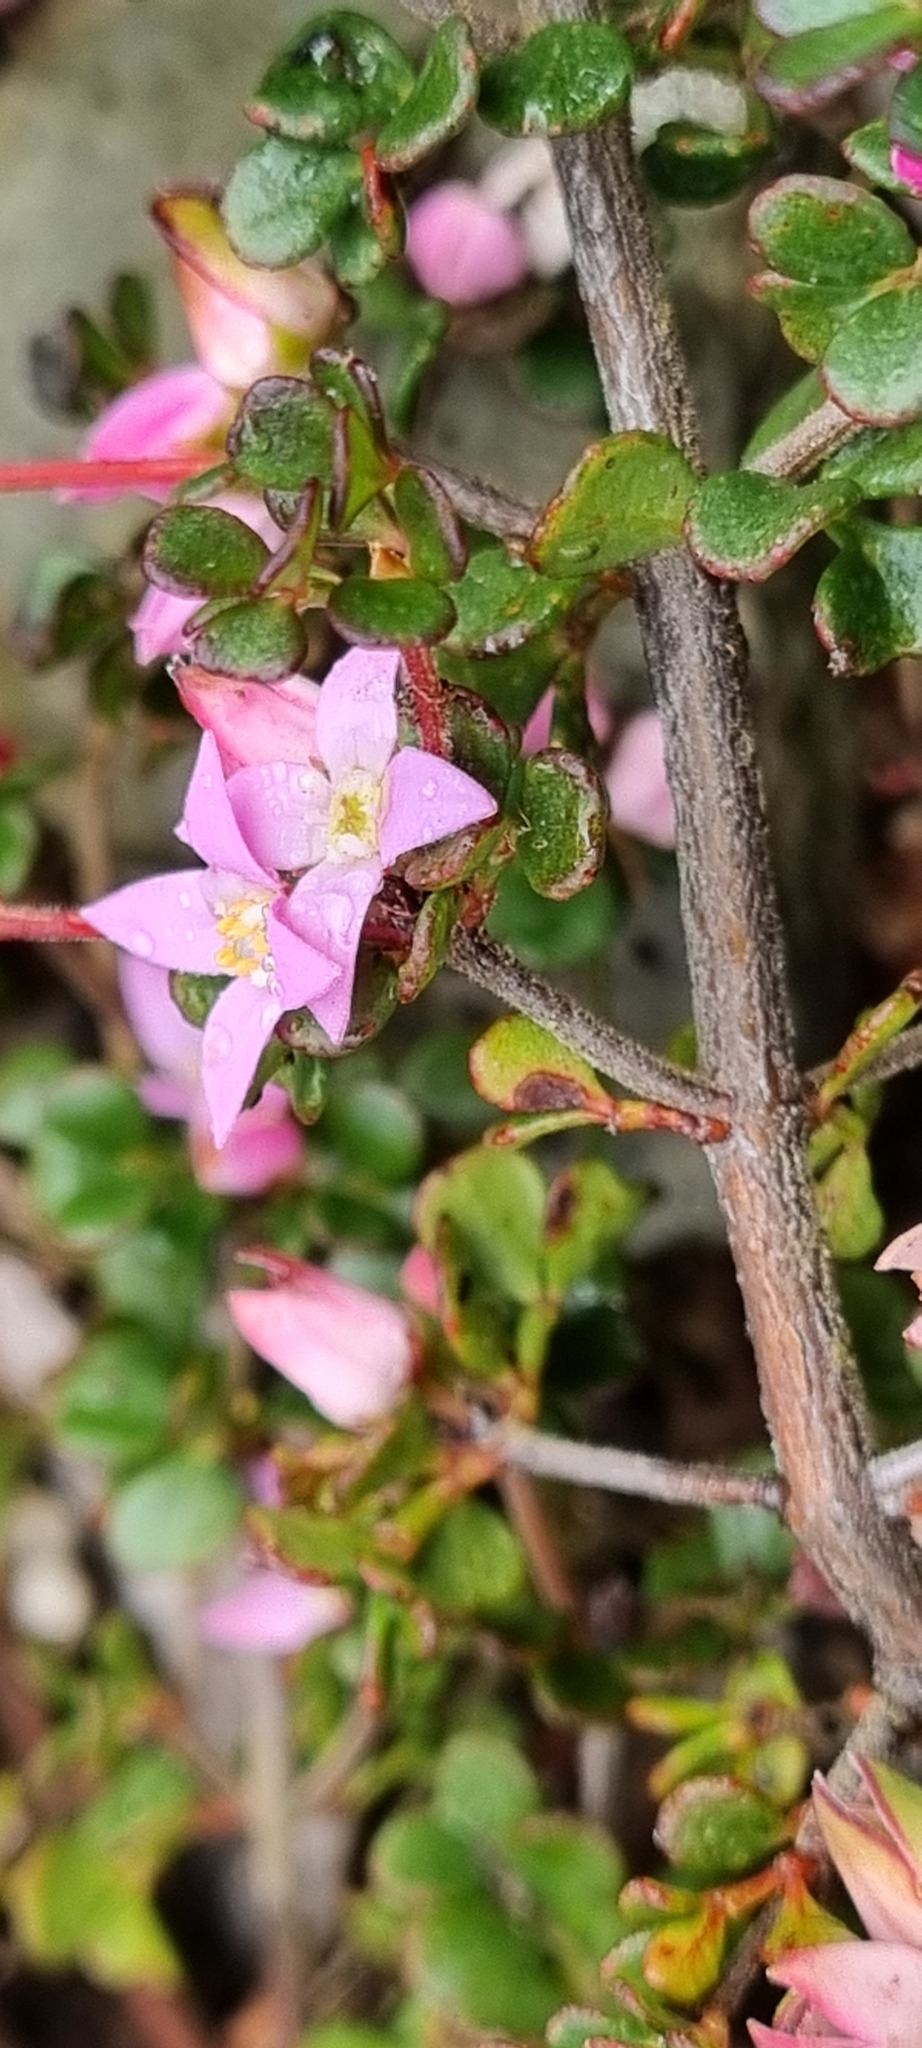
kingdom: Plantae
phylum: Tracheophyta
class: Magnoliopsida
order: Sapindales
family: Rutaceae
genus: Boronia
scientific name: Boronia algida
